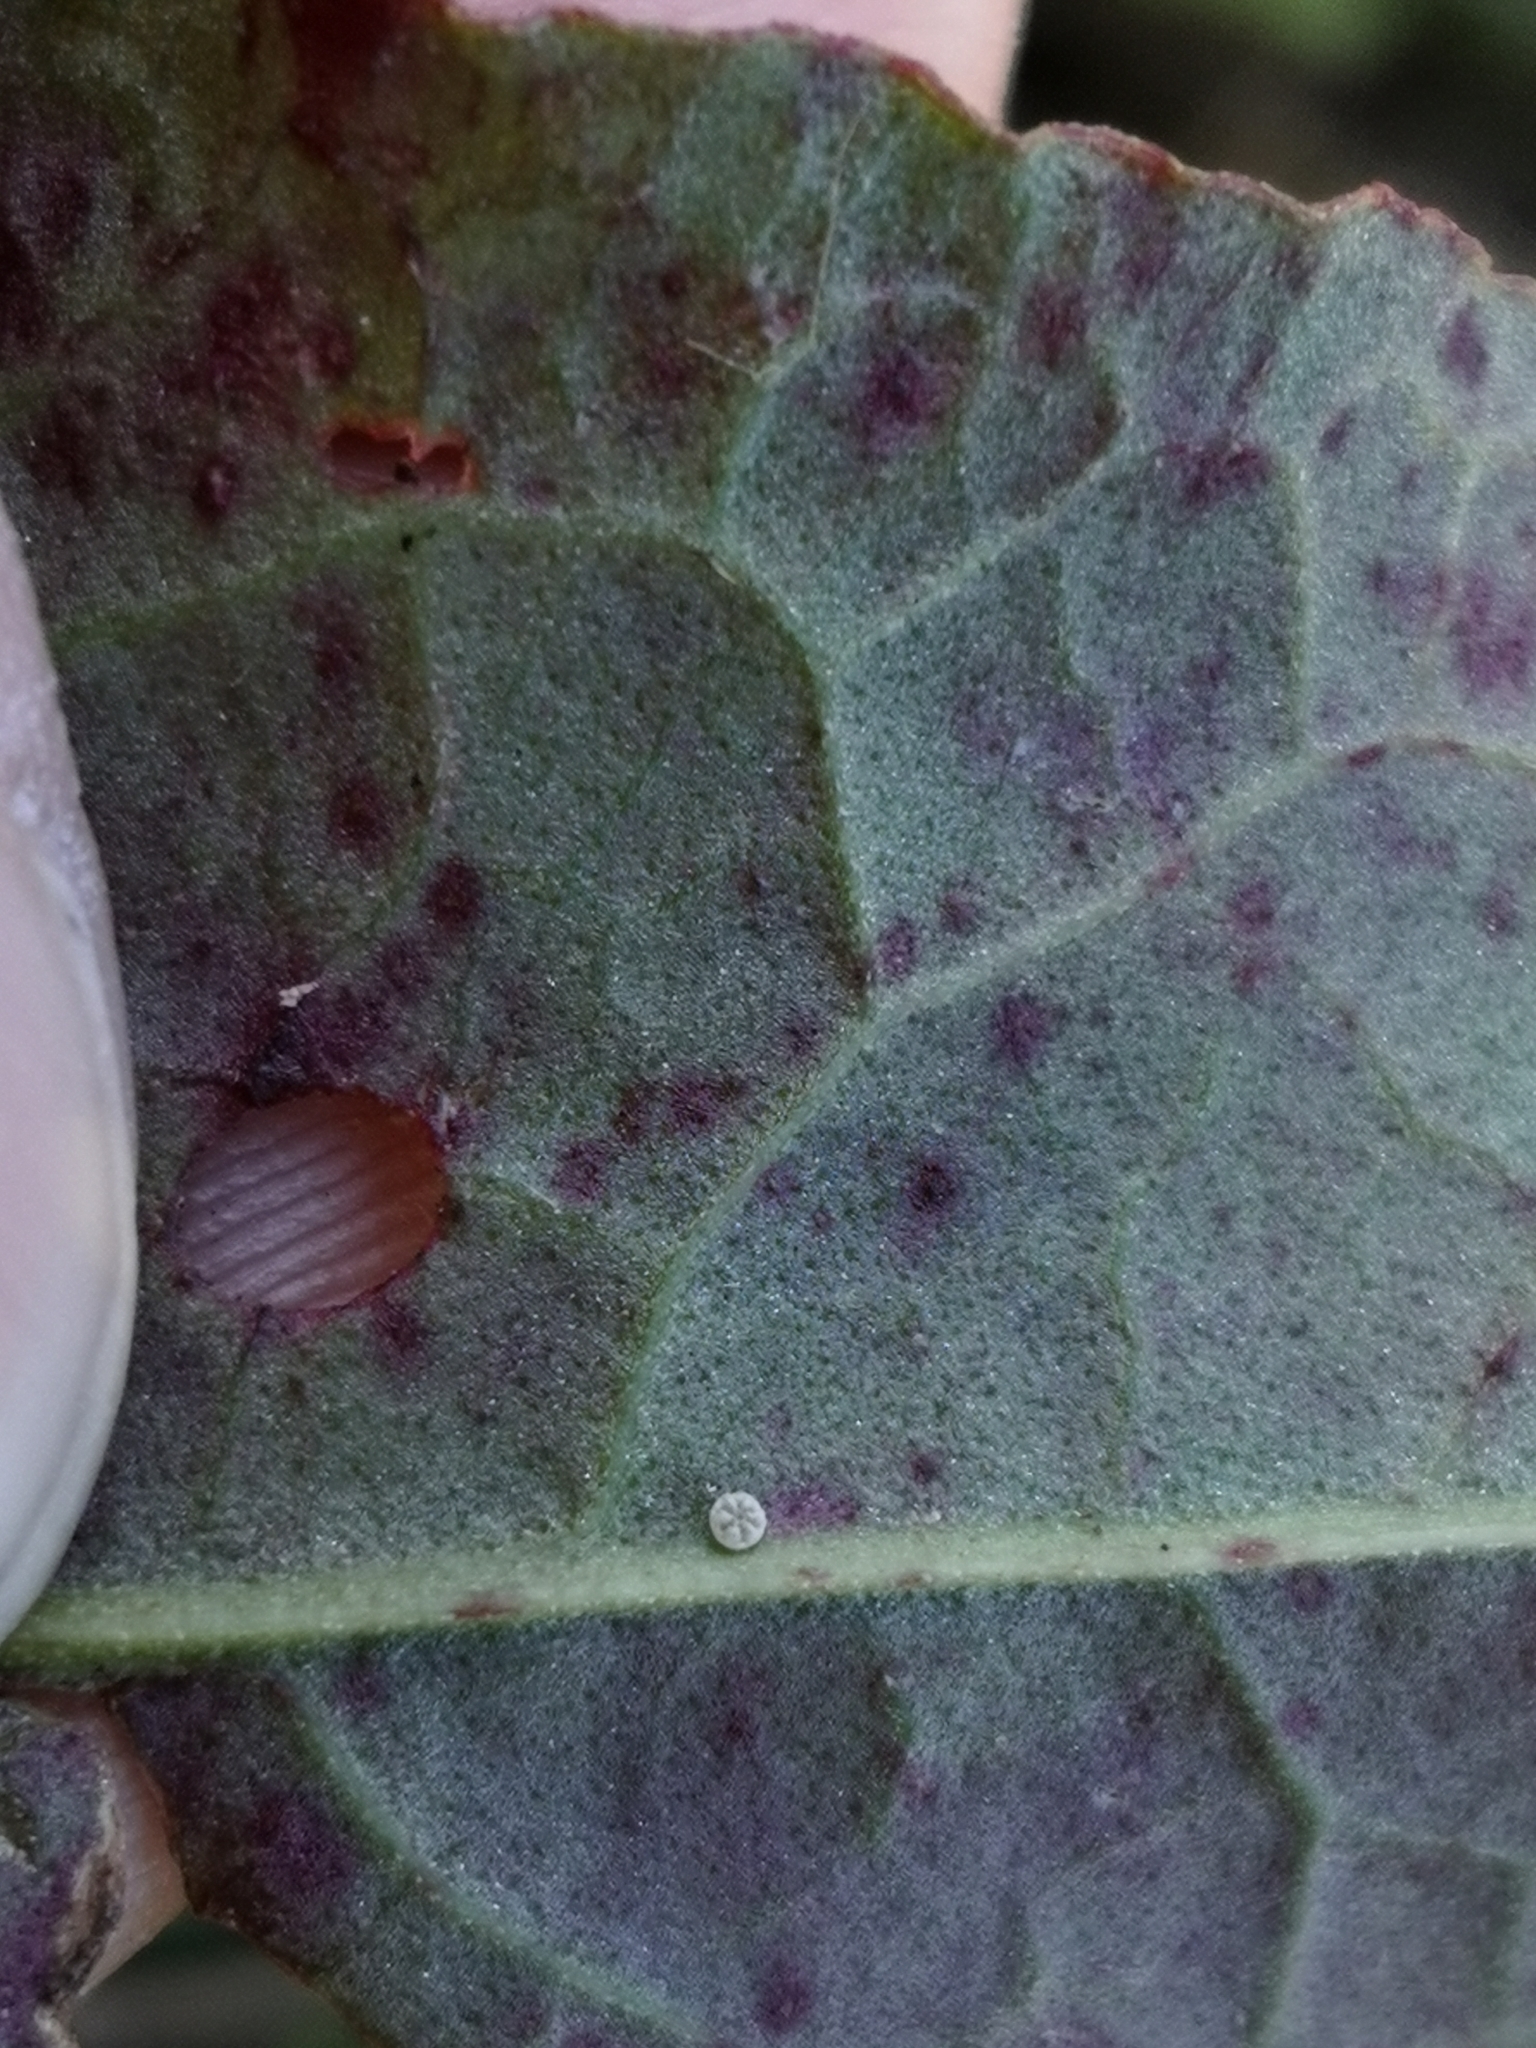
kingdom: Animalia
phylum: Arthropoda
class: Insecta
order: Lepidoptera
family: Lycaenidae
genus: Lycaena
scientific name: Lycaena dispar
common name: Large copper
